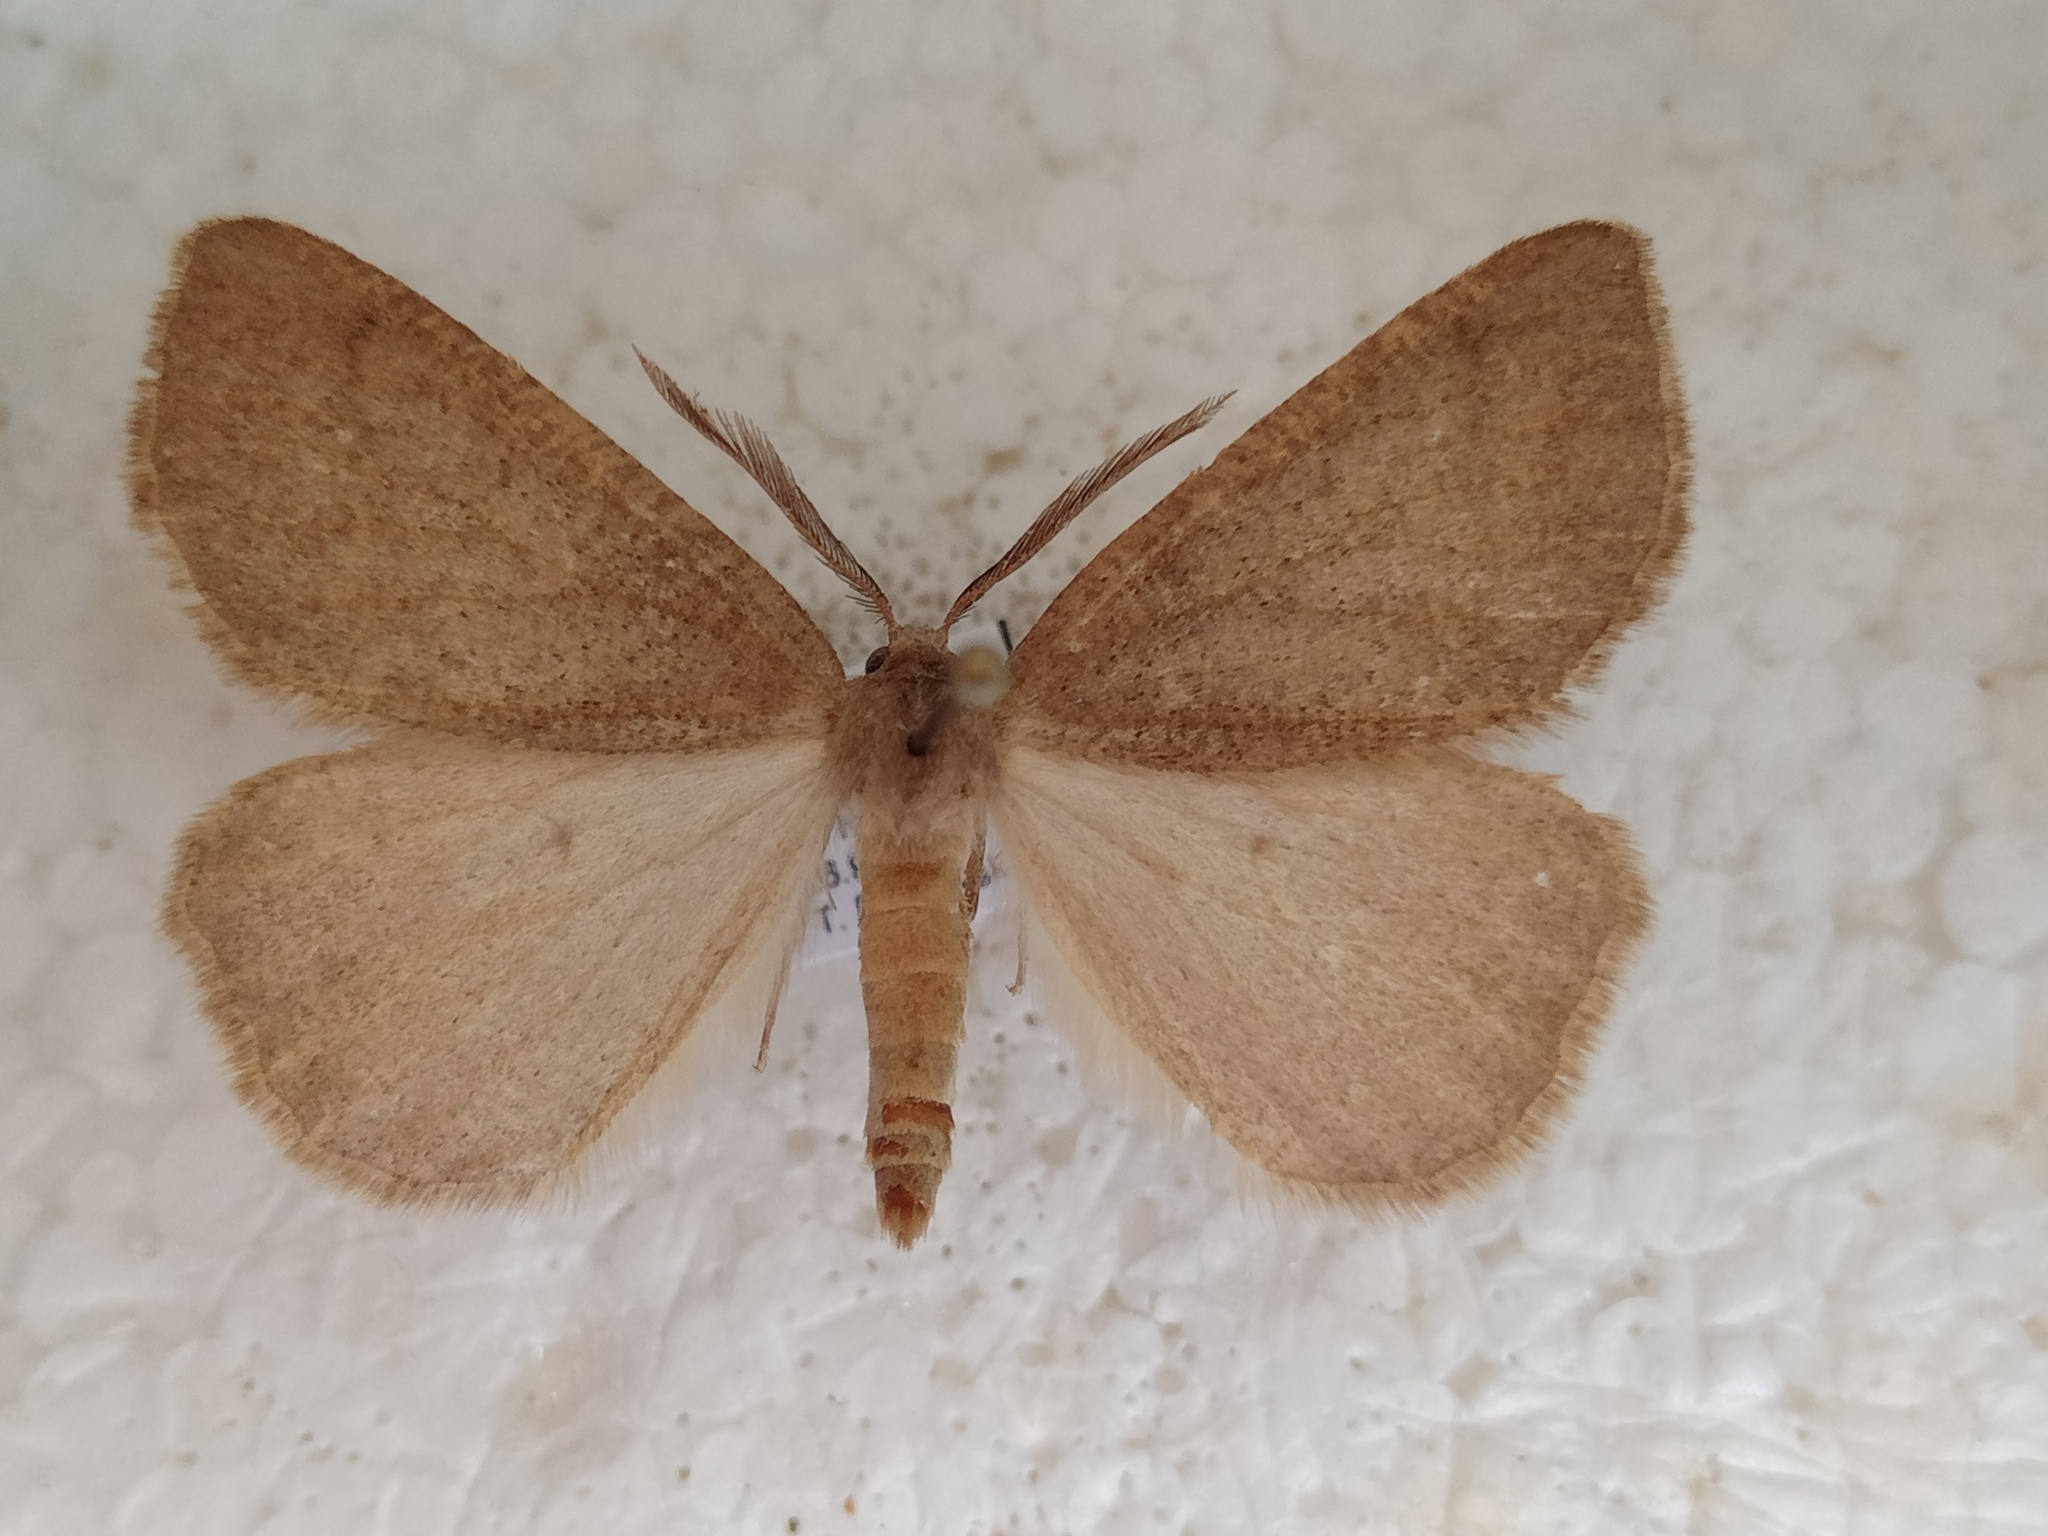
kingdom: Animalia
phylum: Arthropoda
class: Insecta
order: Lepidoptera
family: Geometridae
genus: Onychora
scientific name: Onychora agaritharia
